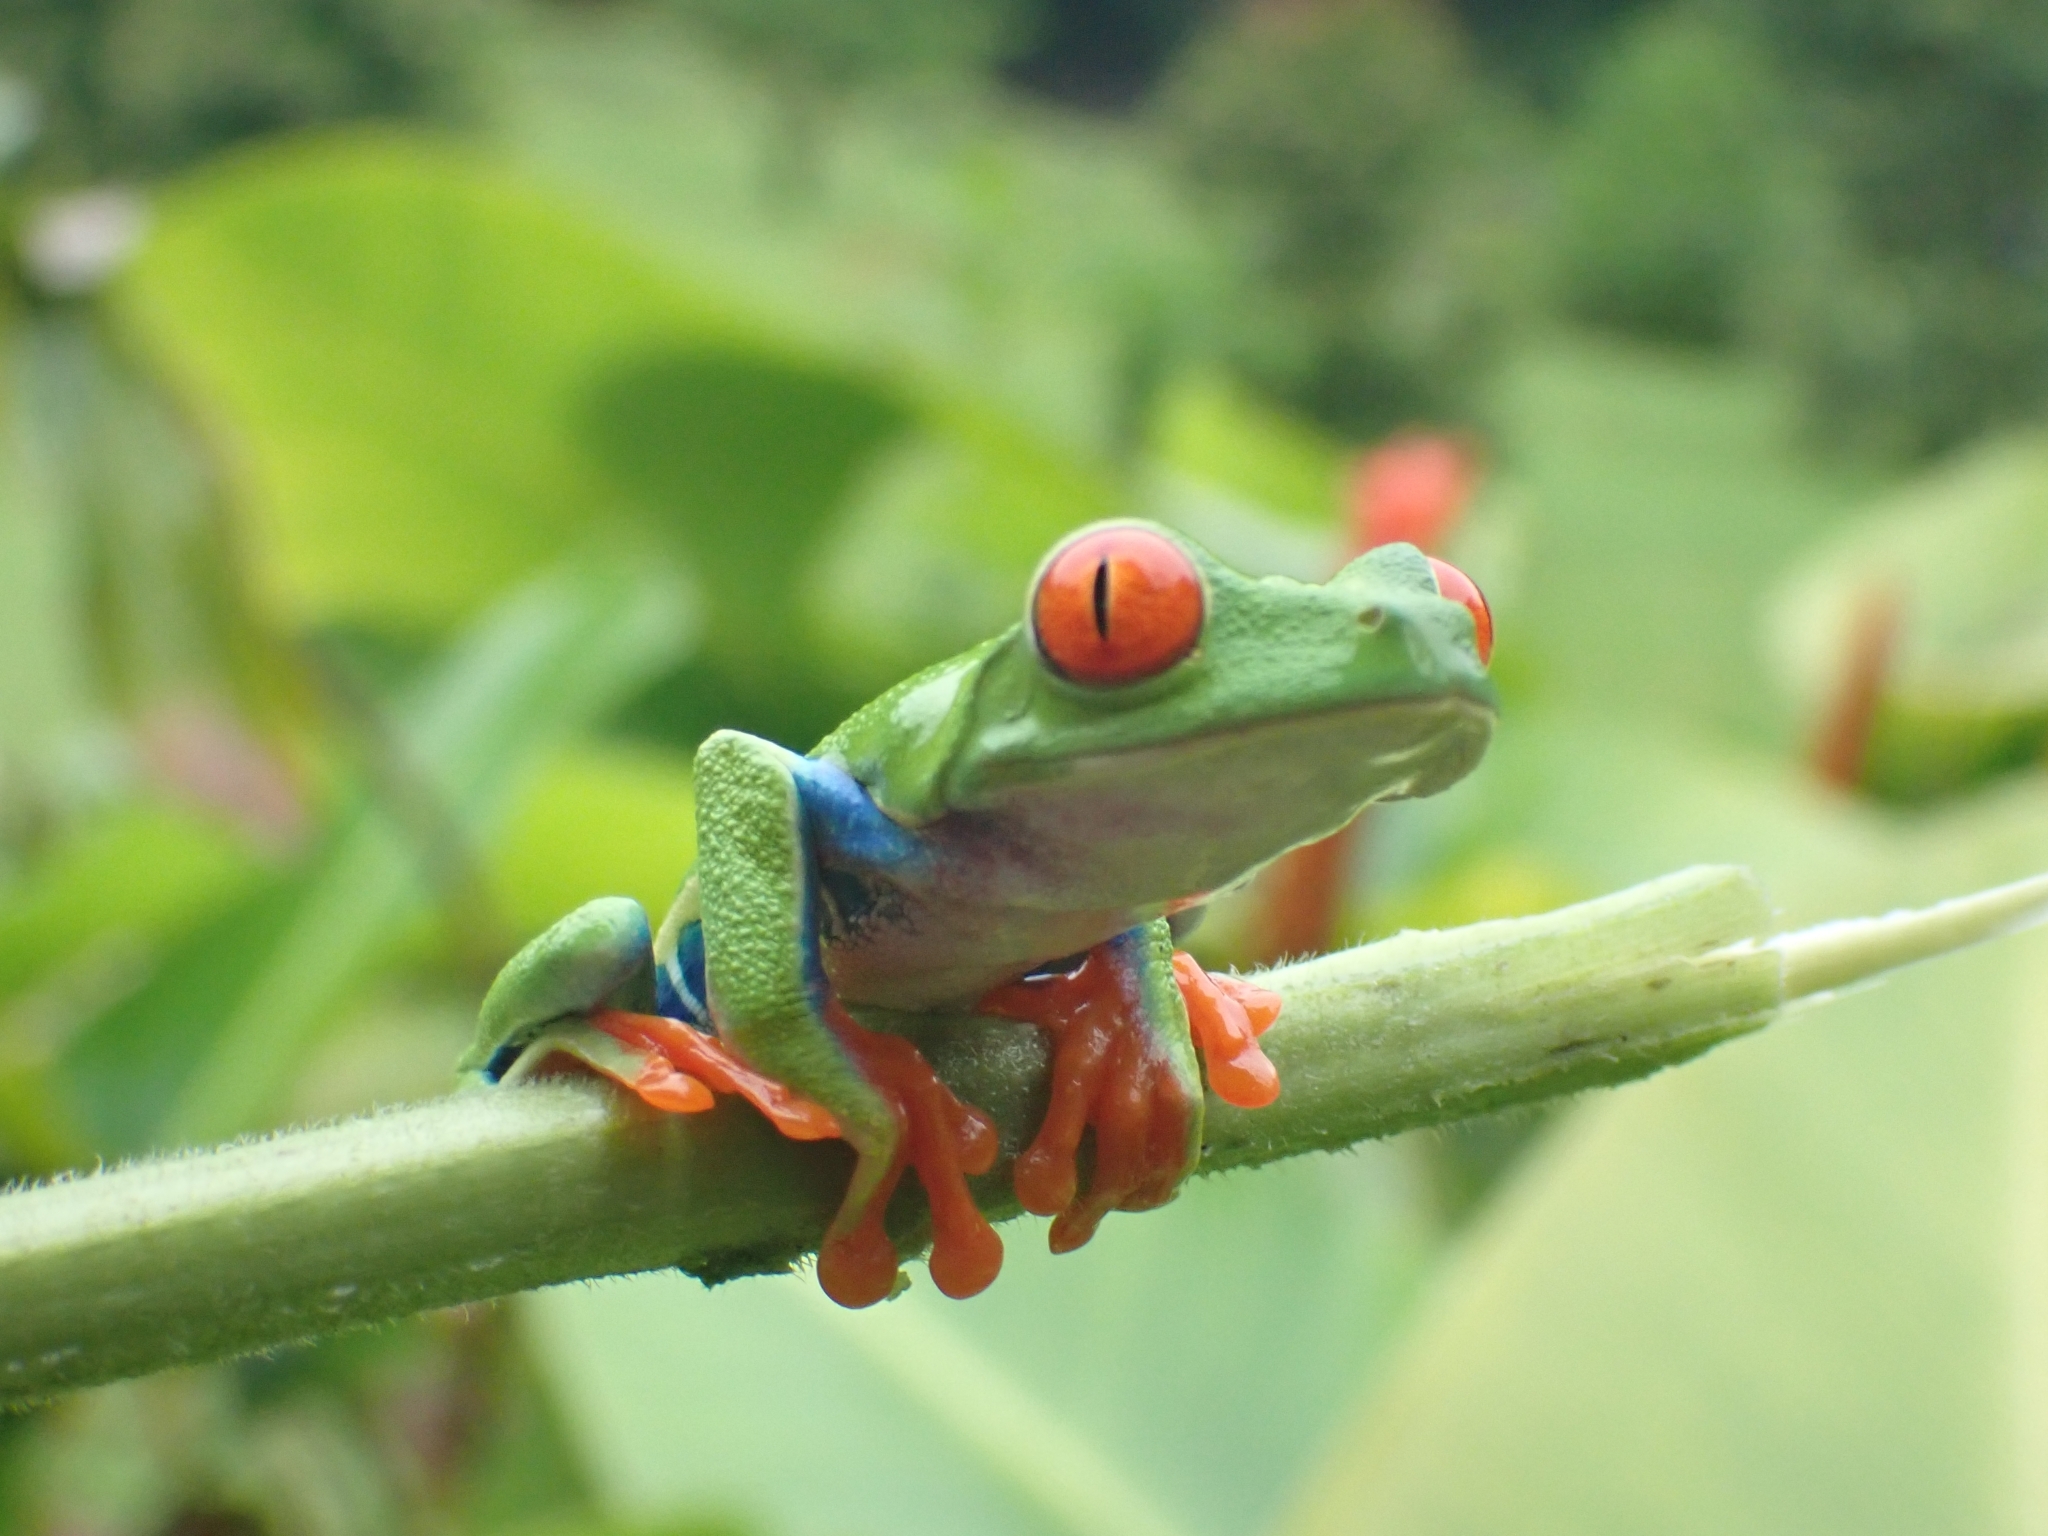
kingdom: Animalia
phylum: Chordata
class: Amphibia
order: Anura
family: Phyllomedusidae
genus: Agalychnis
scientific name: Agalychnis callidryas
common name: Red-eyed treefrog
